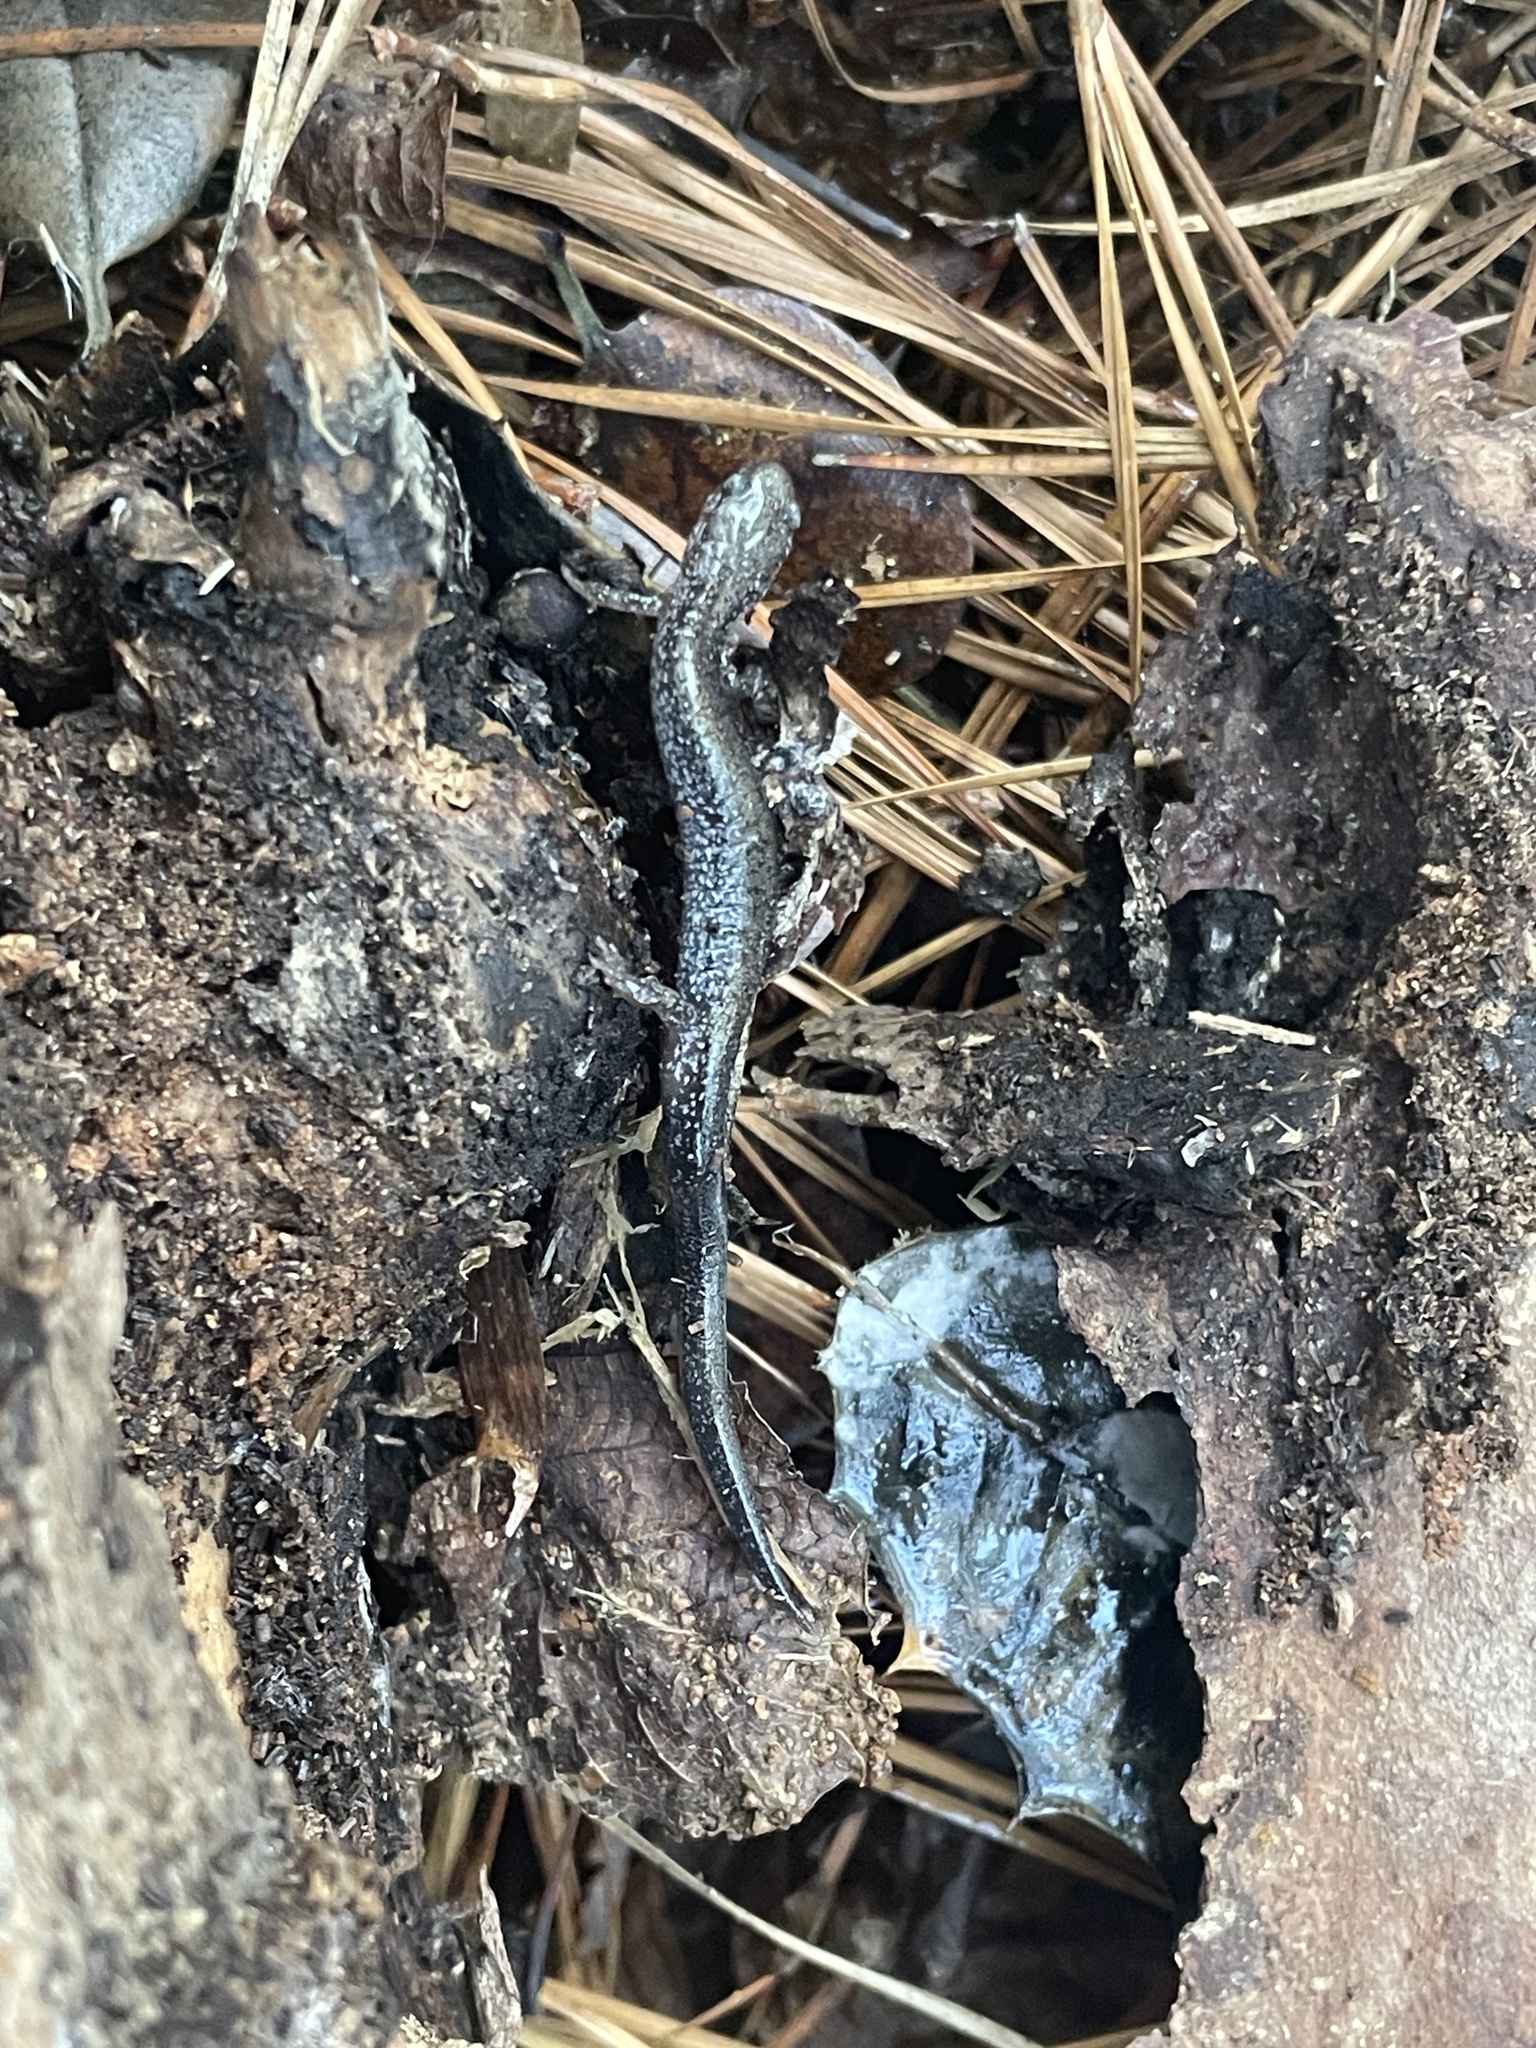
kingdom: Animalia
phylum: Chordata
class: Amphibia
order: Caudata
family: Plethodontidae
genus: Plethodon
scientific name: Plethodon cinereus
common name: Redback salamander
